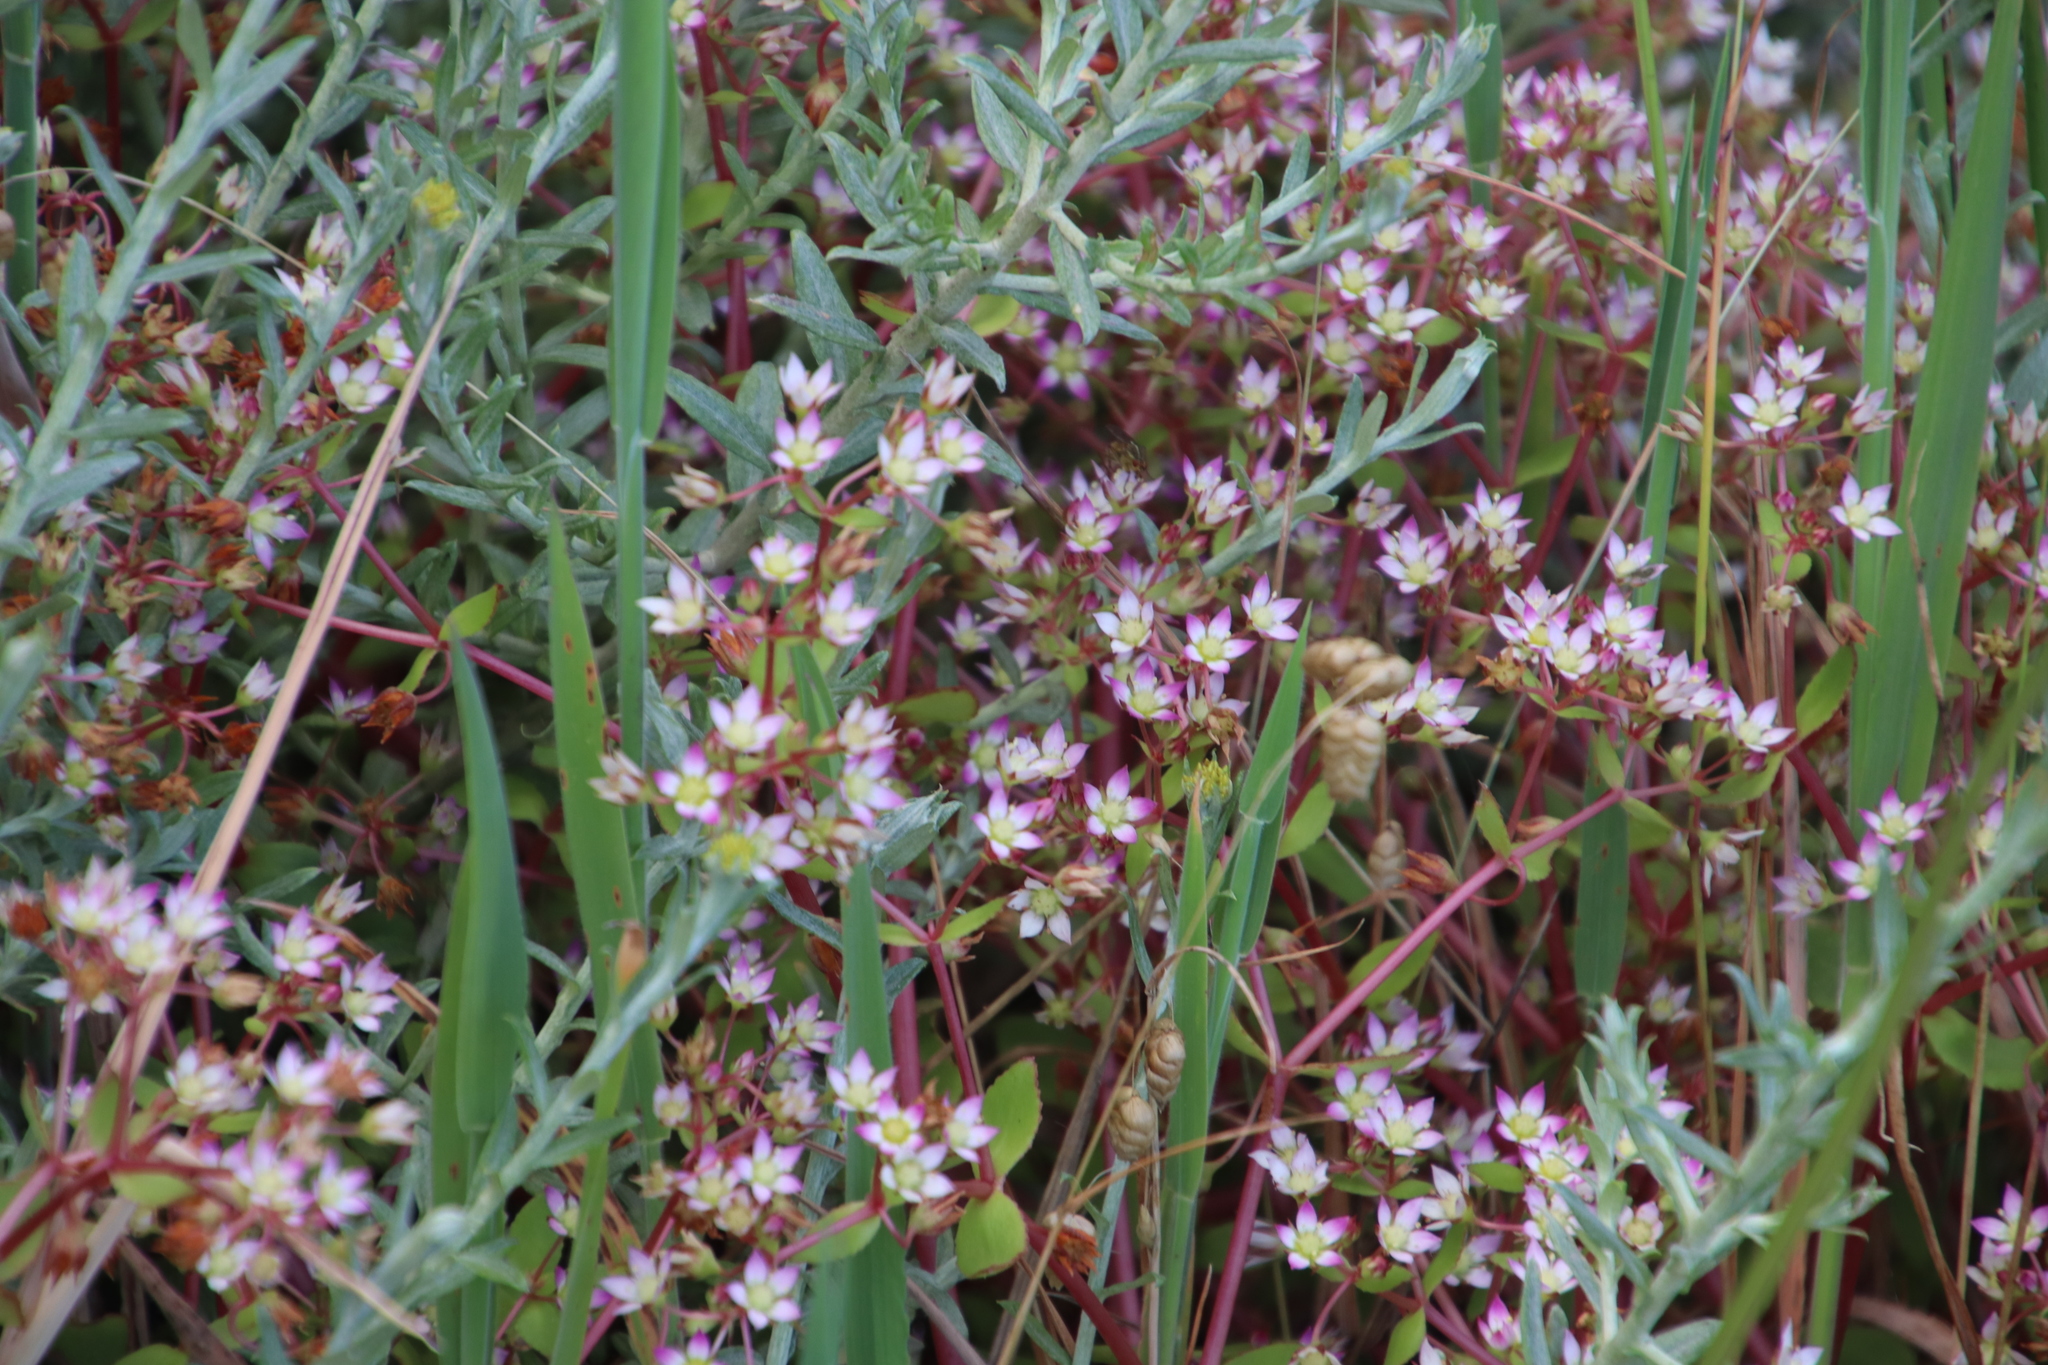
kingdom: Plantae
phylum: Tracheophyta
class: Magnoliopsida
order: Saxifragales
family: Crassulaceae
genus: Crassula
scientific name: Crassula pruinosa
